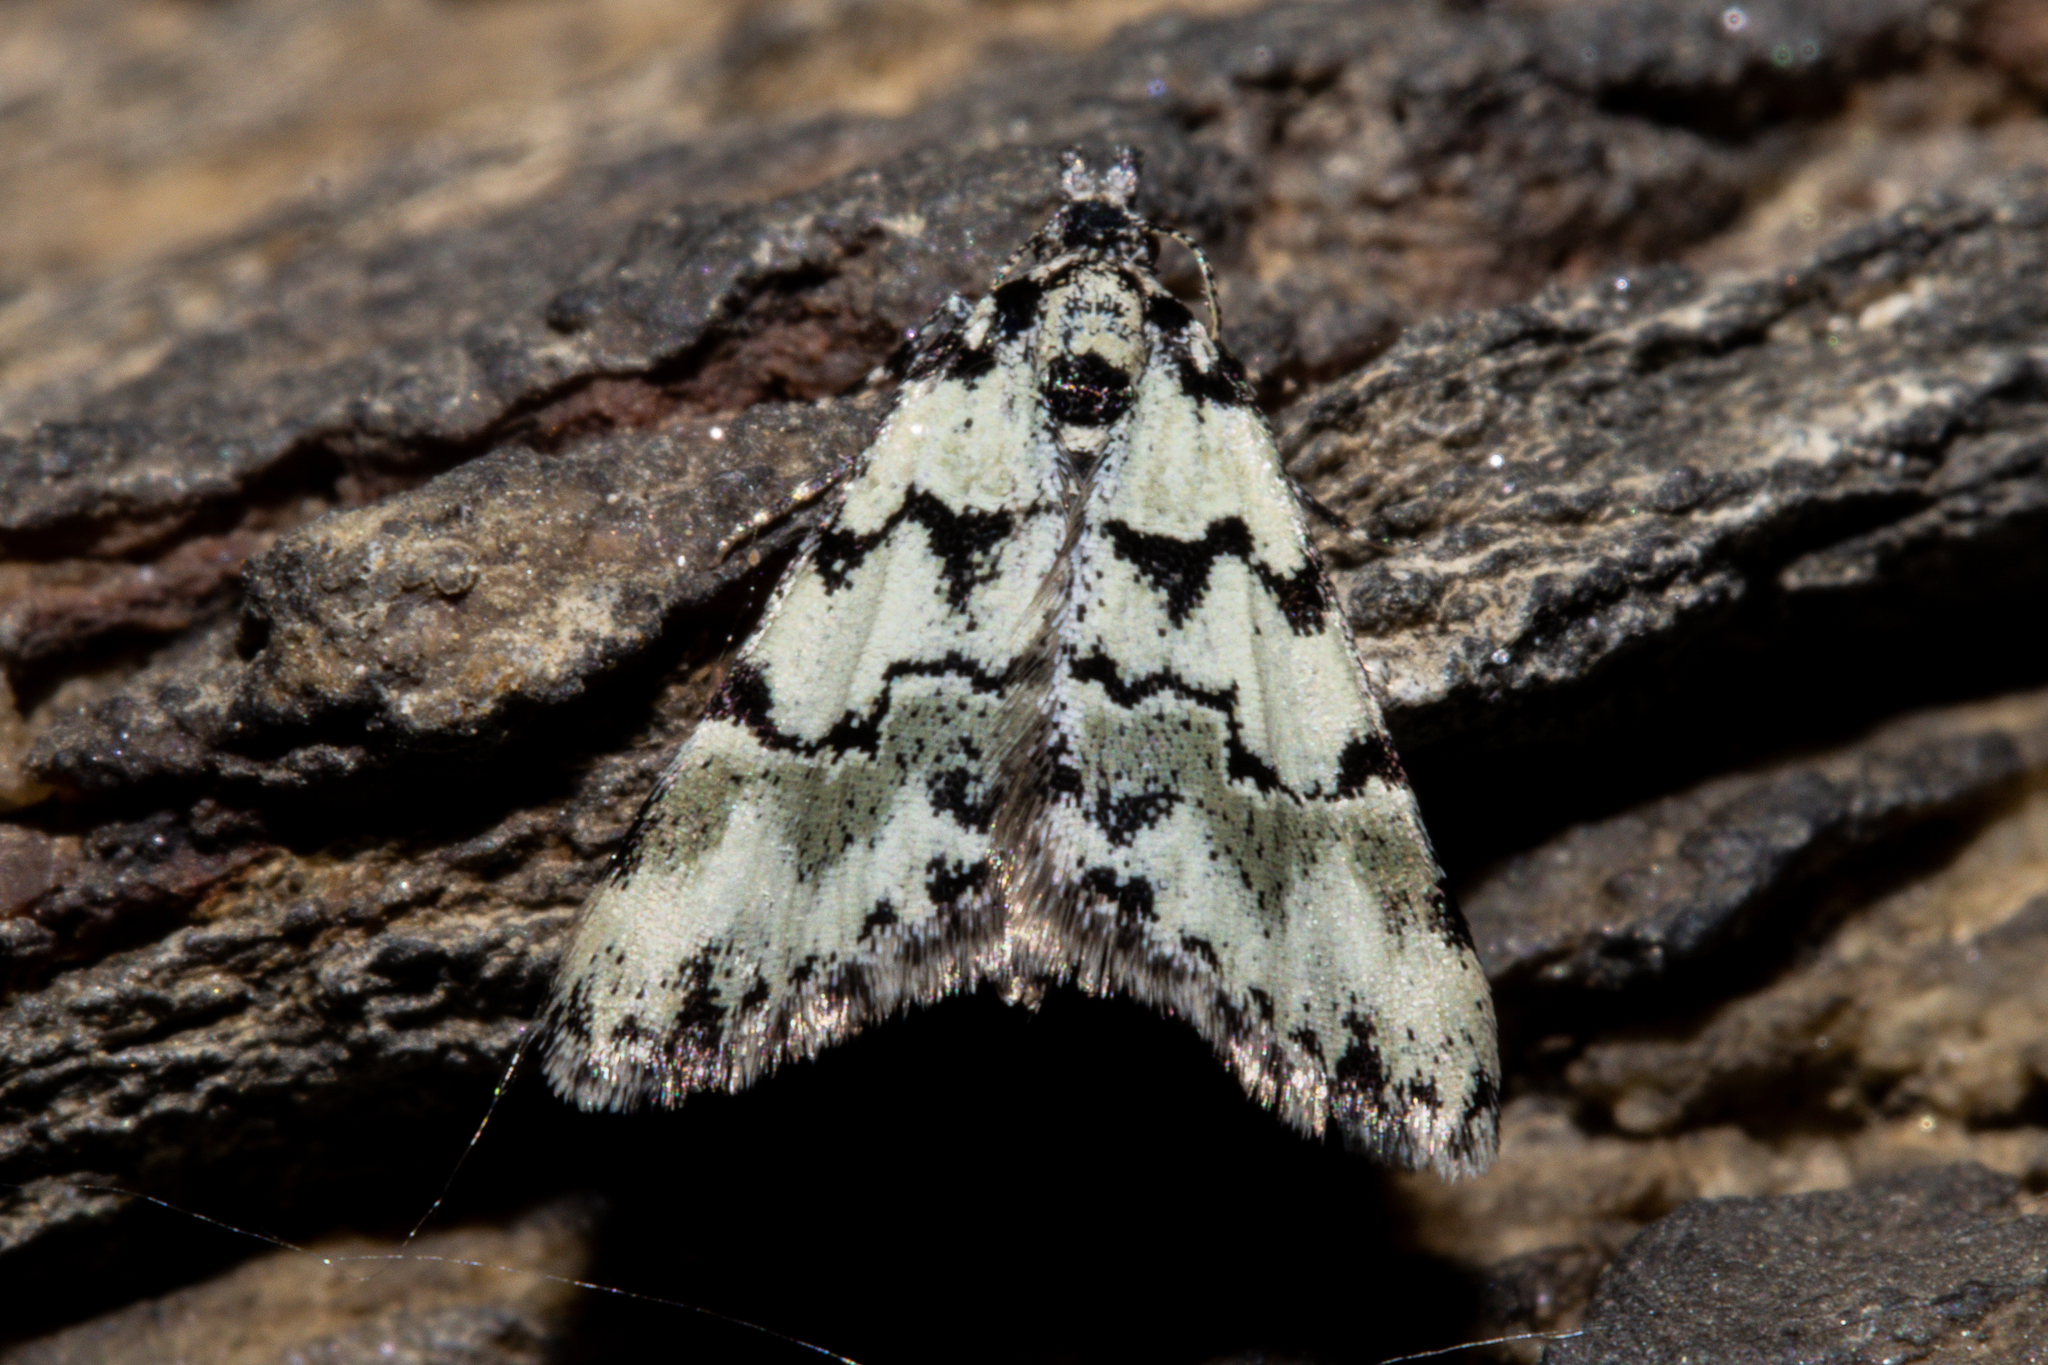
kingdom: Animalia
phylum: Arthropoda
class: Insecta
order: Lepidoptera
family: Geometridae
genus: Dichromodes
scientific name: Dichromodes gypsotis
